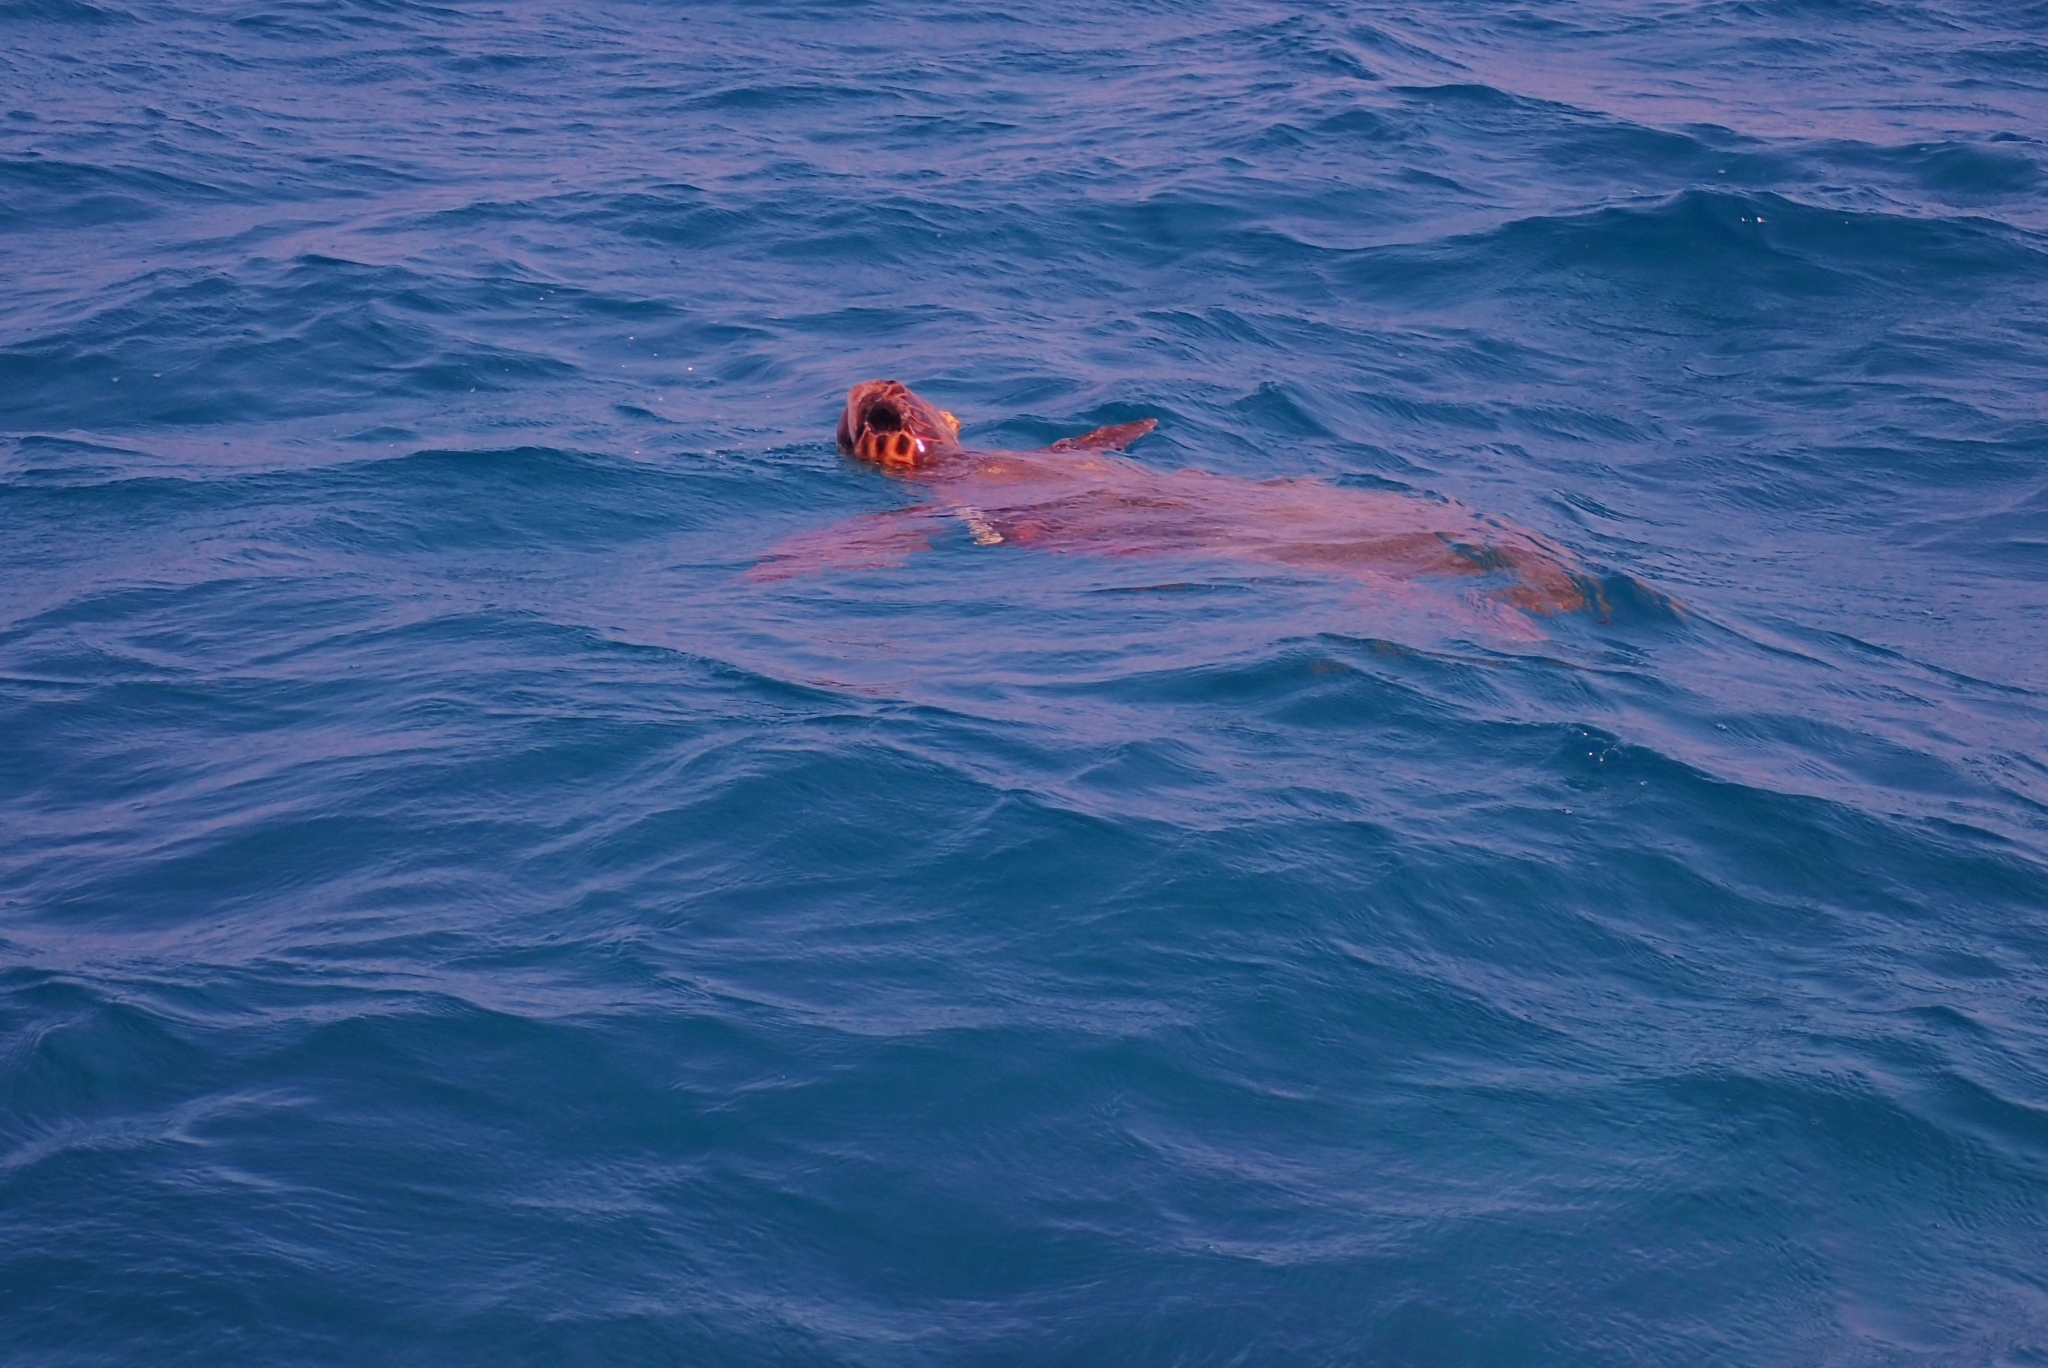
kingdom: Animalia
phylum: Chordata
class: Testudines
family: Cheloniidae
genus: Caretta
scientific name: Caretta caretta
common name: Loggerhead sea turtle
